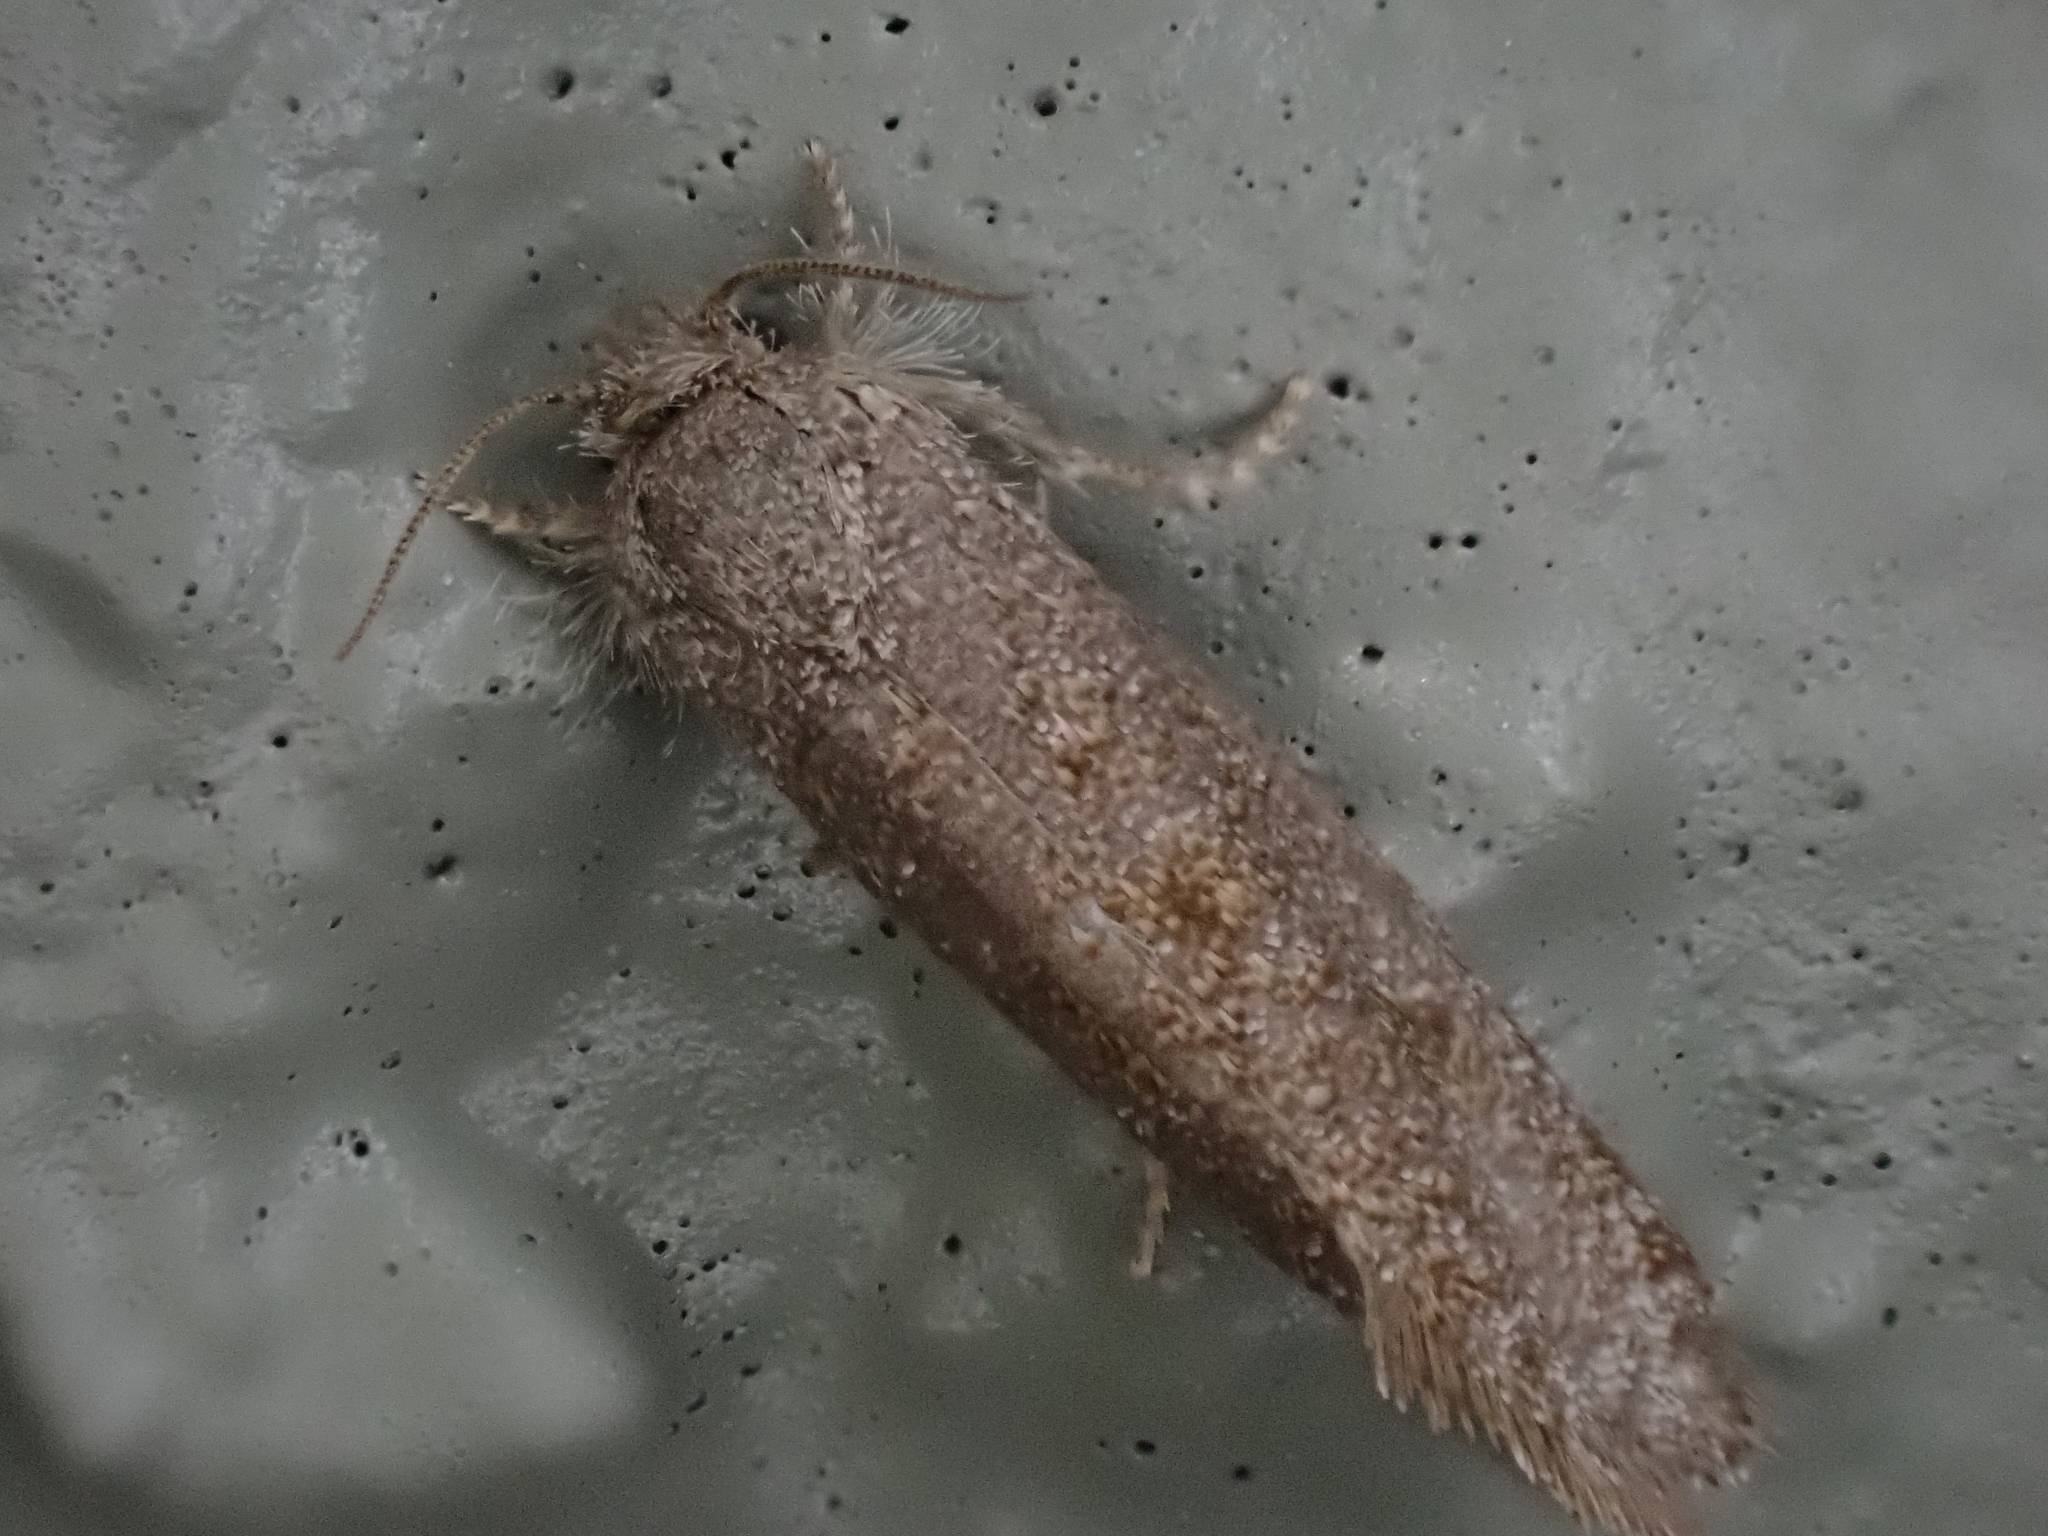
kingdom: Animalia
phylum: Arthropoda
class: Insecta
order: Lepidoptera
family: Tineidae
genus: Acrolophus
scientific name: Acrolophus heppneri
